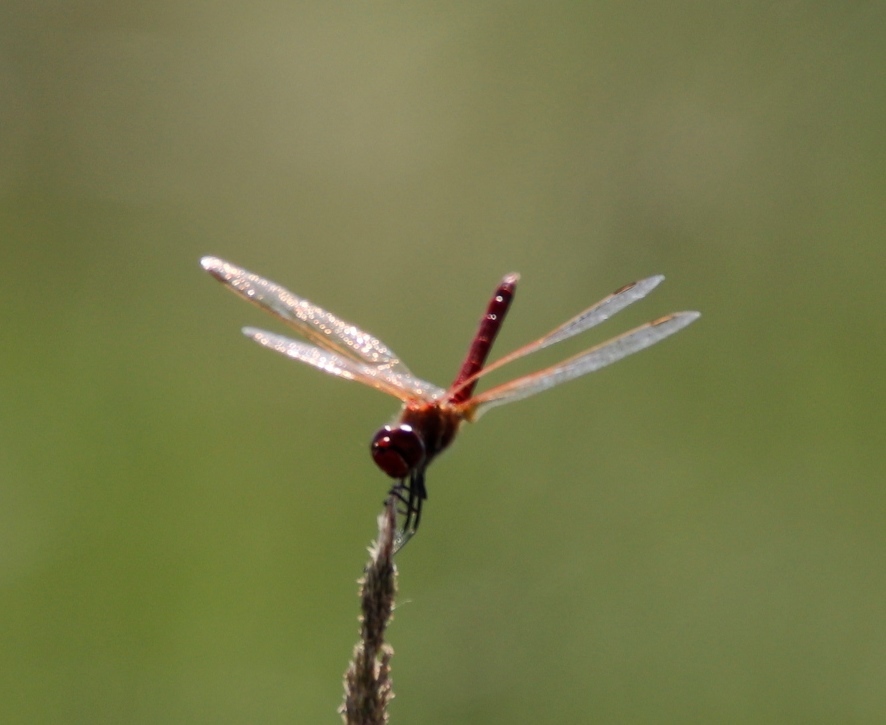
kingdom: Animalia
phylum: Arthropoda
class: Insecta
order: Odonata
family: Libellulidae
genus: Sympetrum
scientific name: Sympetrum fonscolombii
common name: Red-veined darter
